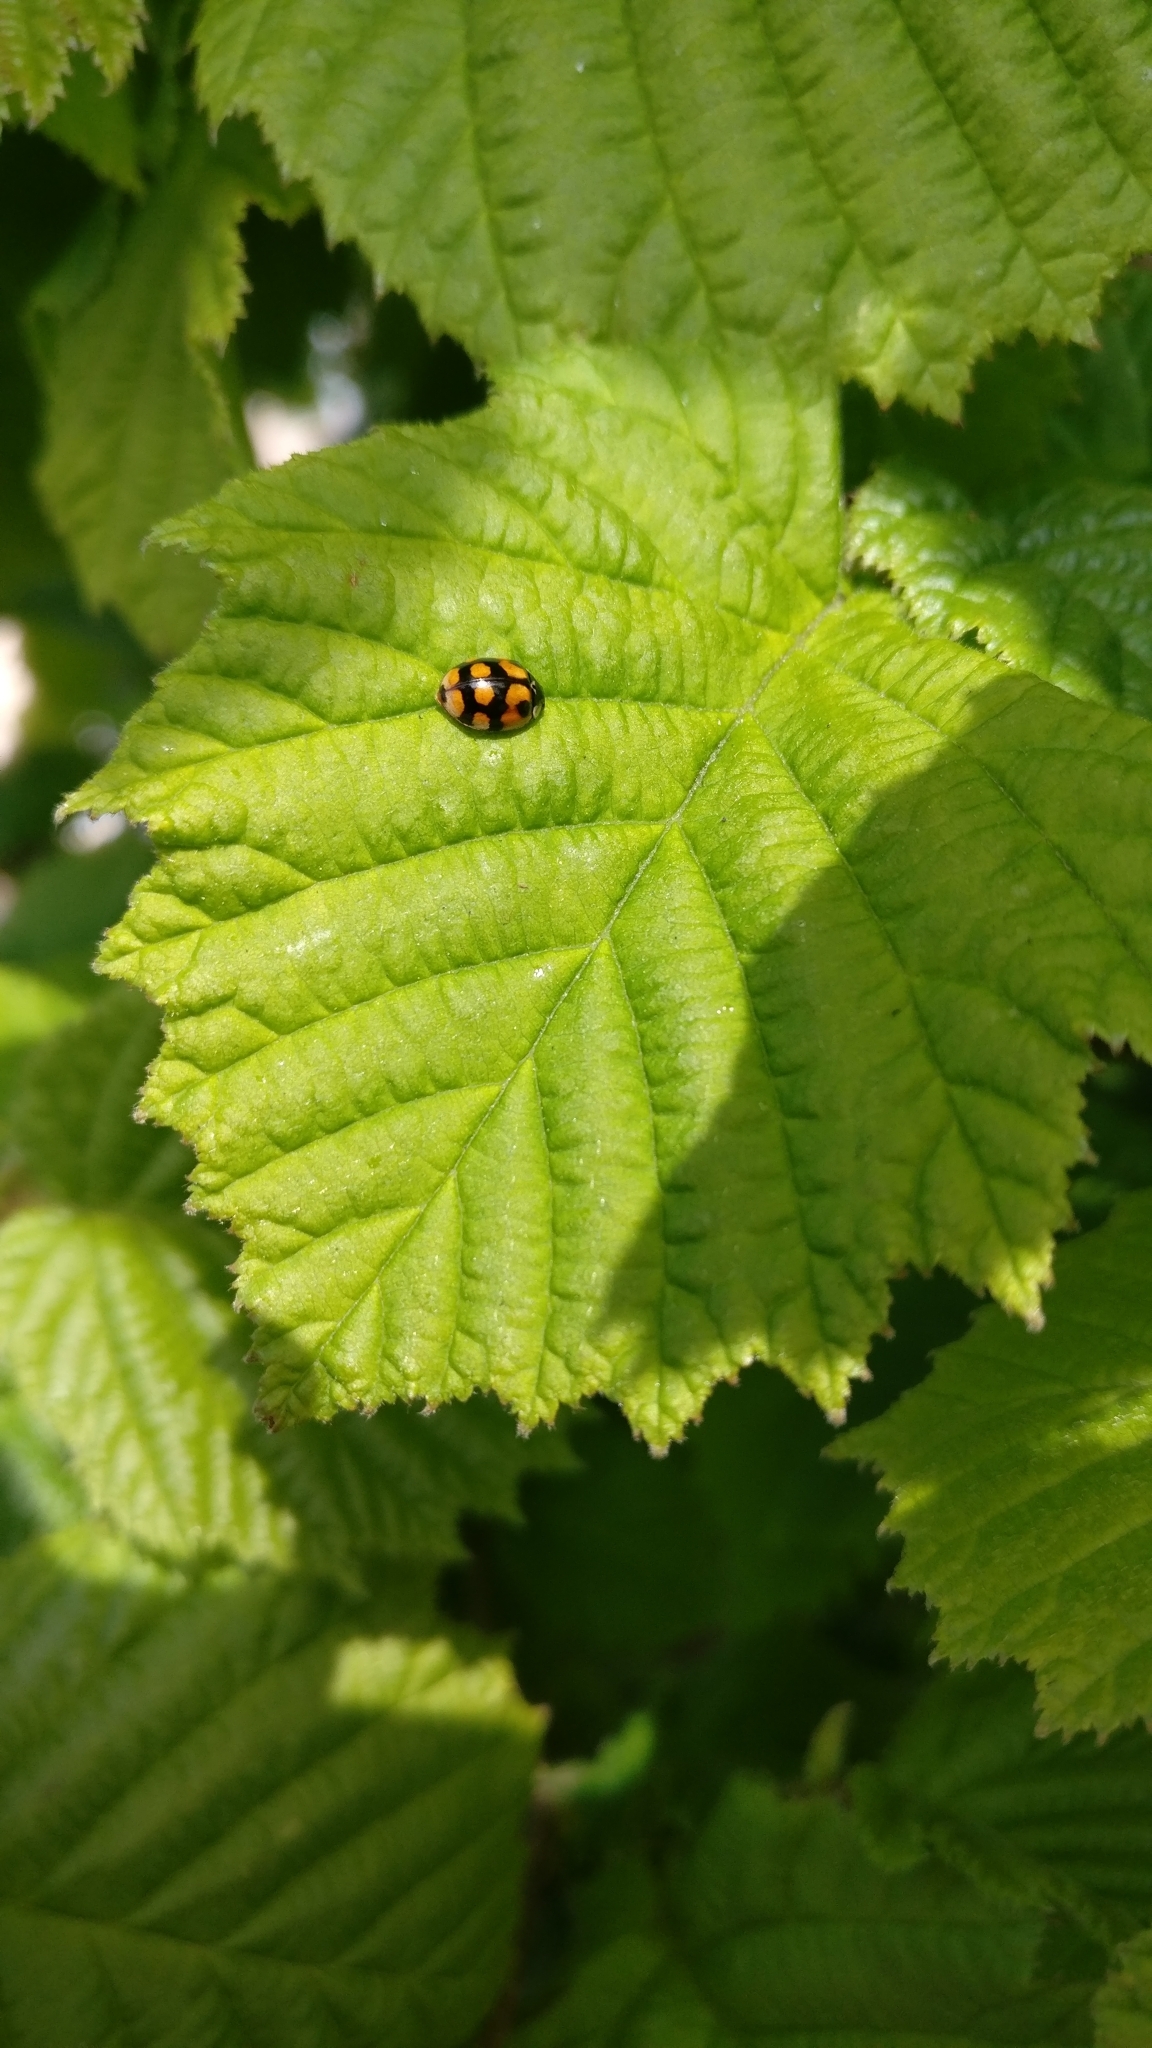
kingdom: Animalia
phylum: Arthropoda
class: Insecta
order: Coleoptera
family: Coccinellidae
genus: Adalia
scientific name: Adalia decempunctata
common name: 10-spot ladybird
